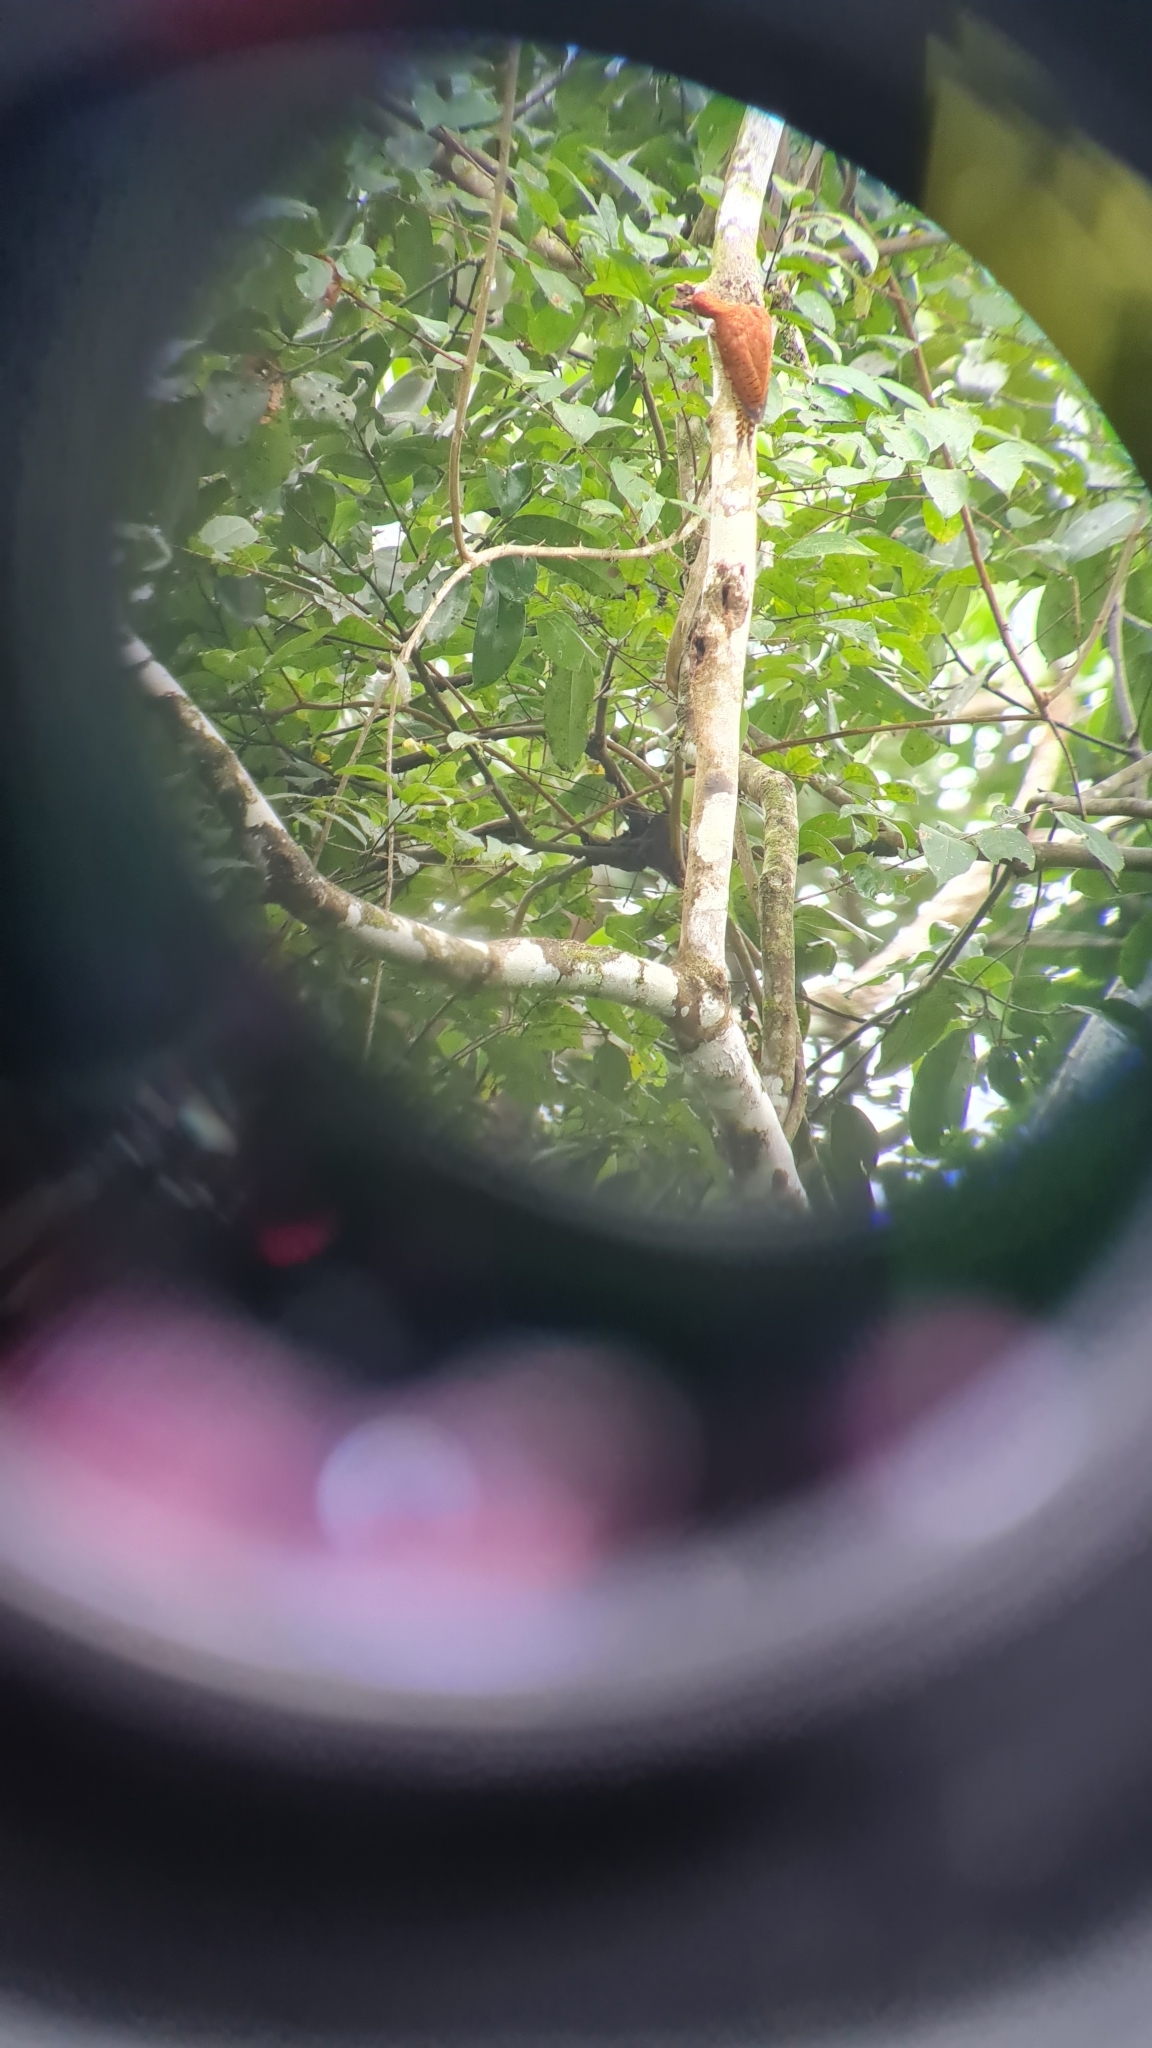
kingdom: Animalia
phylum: Chordata
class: Aves
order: Piciformes
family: Picidae
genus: Celeus
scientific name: Celeus loricatus
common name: Cinnamon woodpecker
